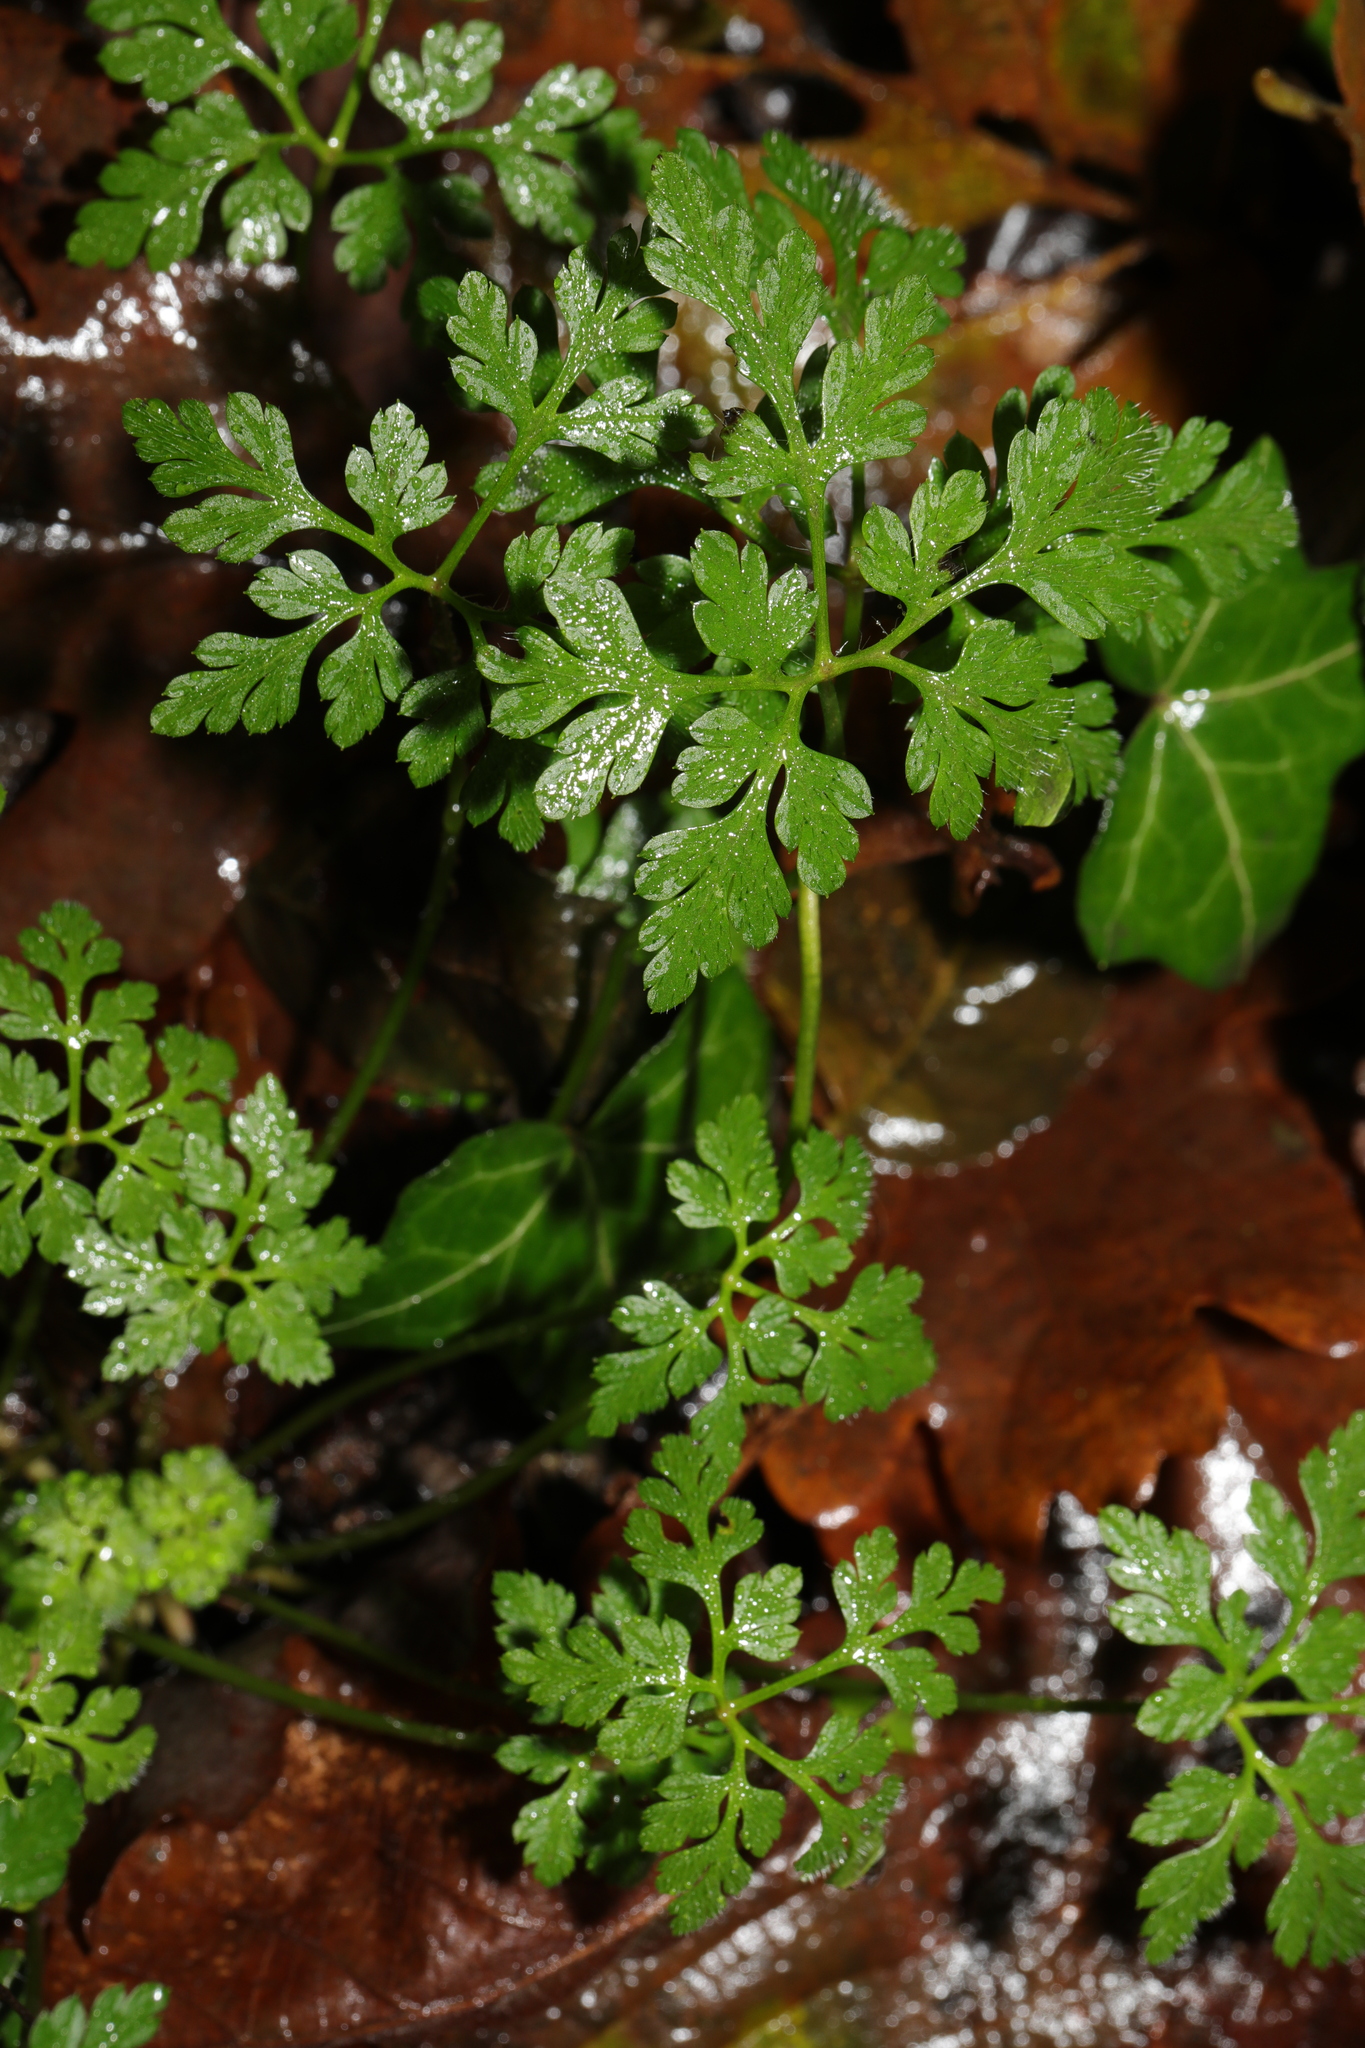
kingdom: Plantae
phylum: Tracheophyta
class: Magnoliopsida
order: Geraniales
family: Geraniaceae
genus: Geranium
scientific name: Geranium robertianum
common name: Herb-robert
